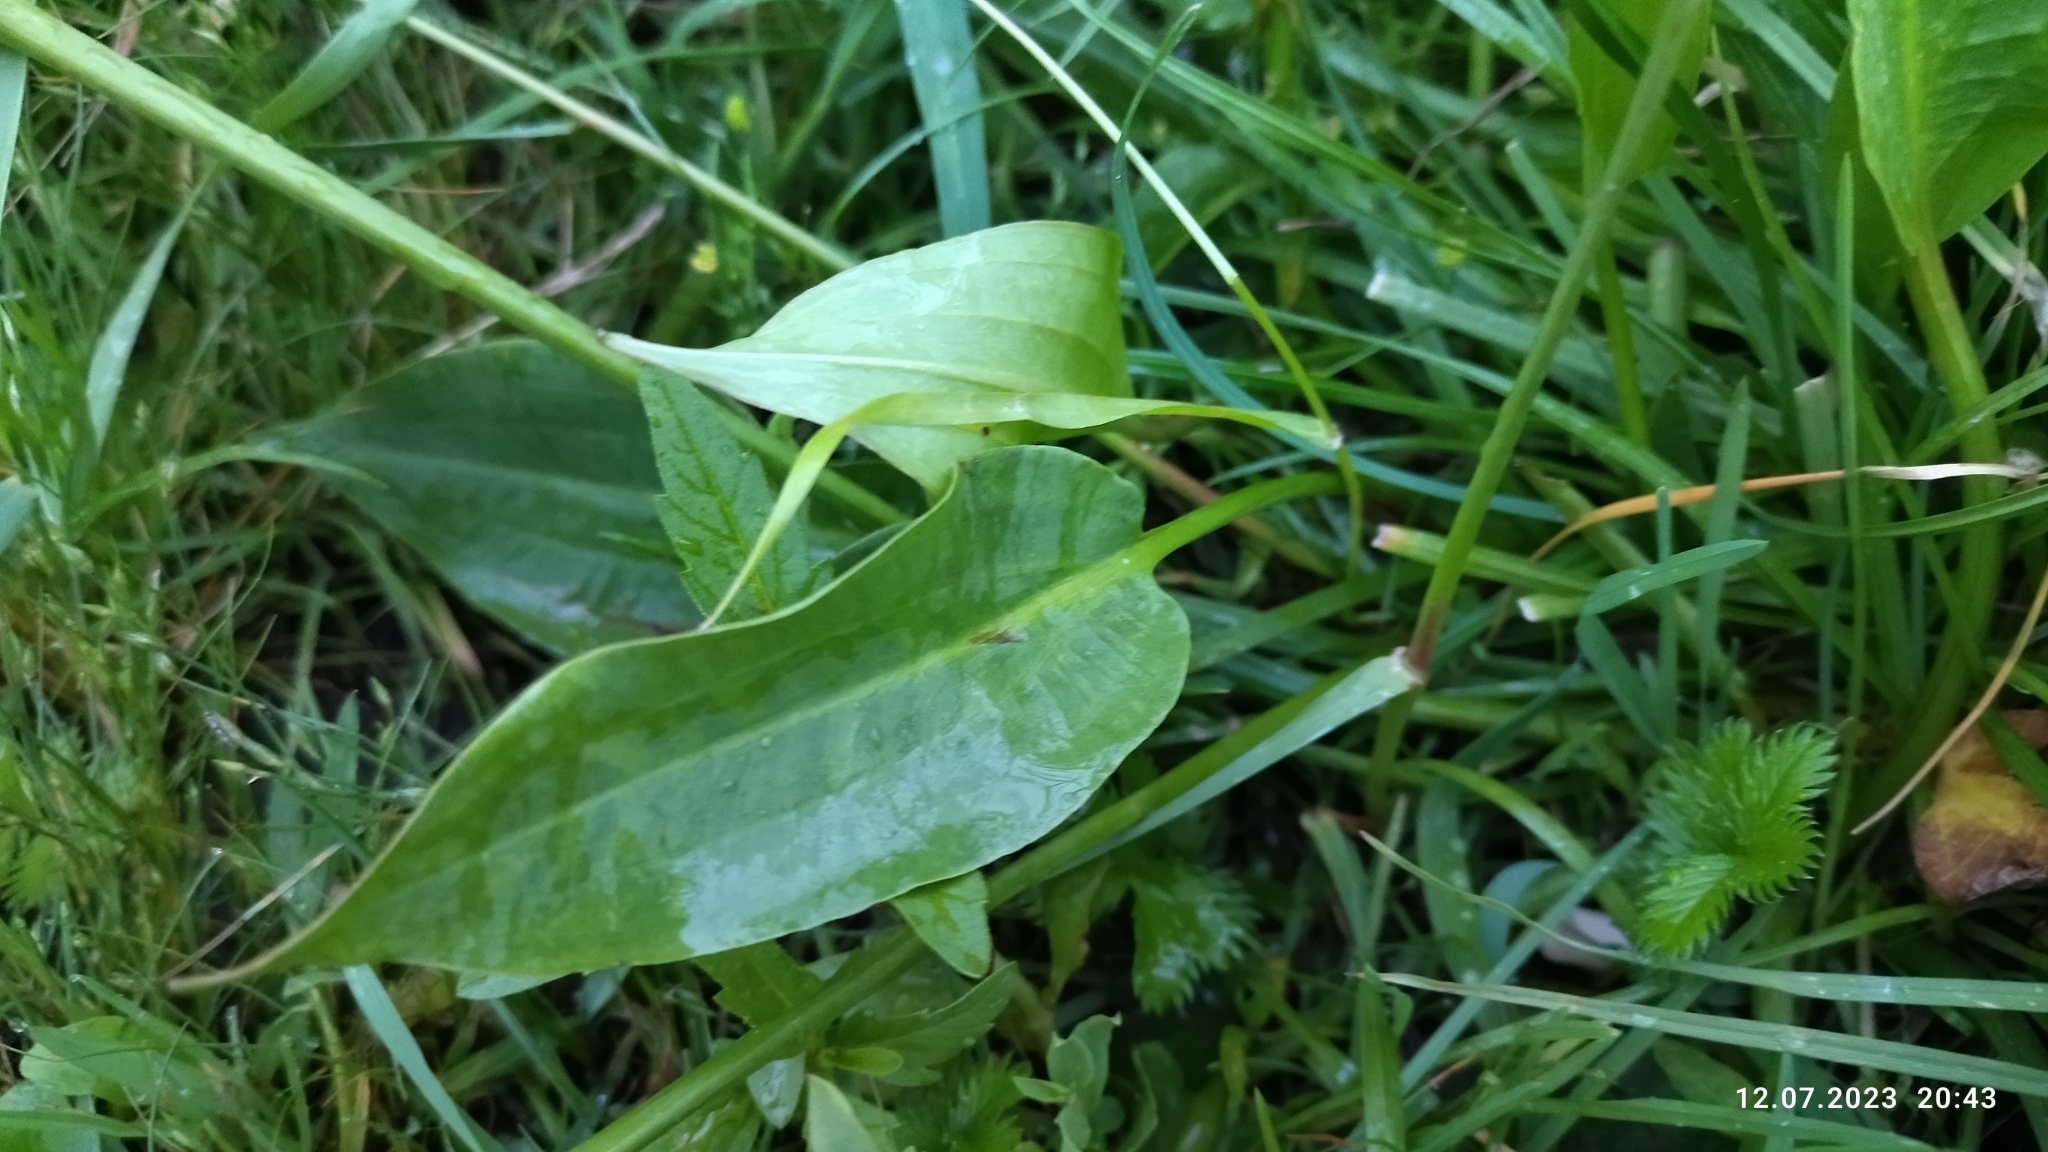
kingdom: Plantae
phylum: Tracheophyta
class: Liliopsida
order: Alismatales
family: Alismataceae
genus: Alisma
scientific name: Alisma plantago-aquatica
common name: Water-plantain
